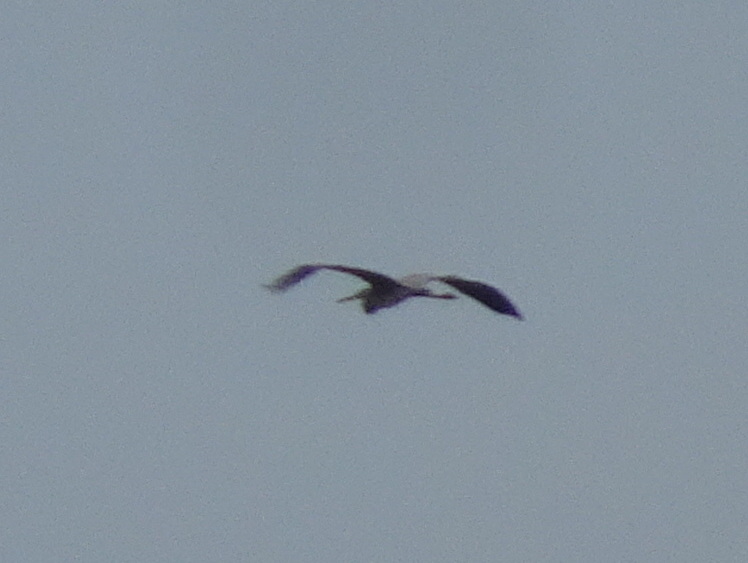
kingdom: Animalia
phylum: Chordata
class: Aves
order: Pelecaniformes
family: Ardeidae
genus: Ardea
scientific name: Ardea cinerea
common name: Grey heron
